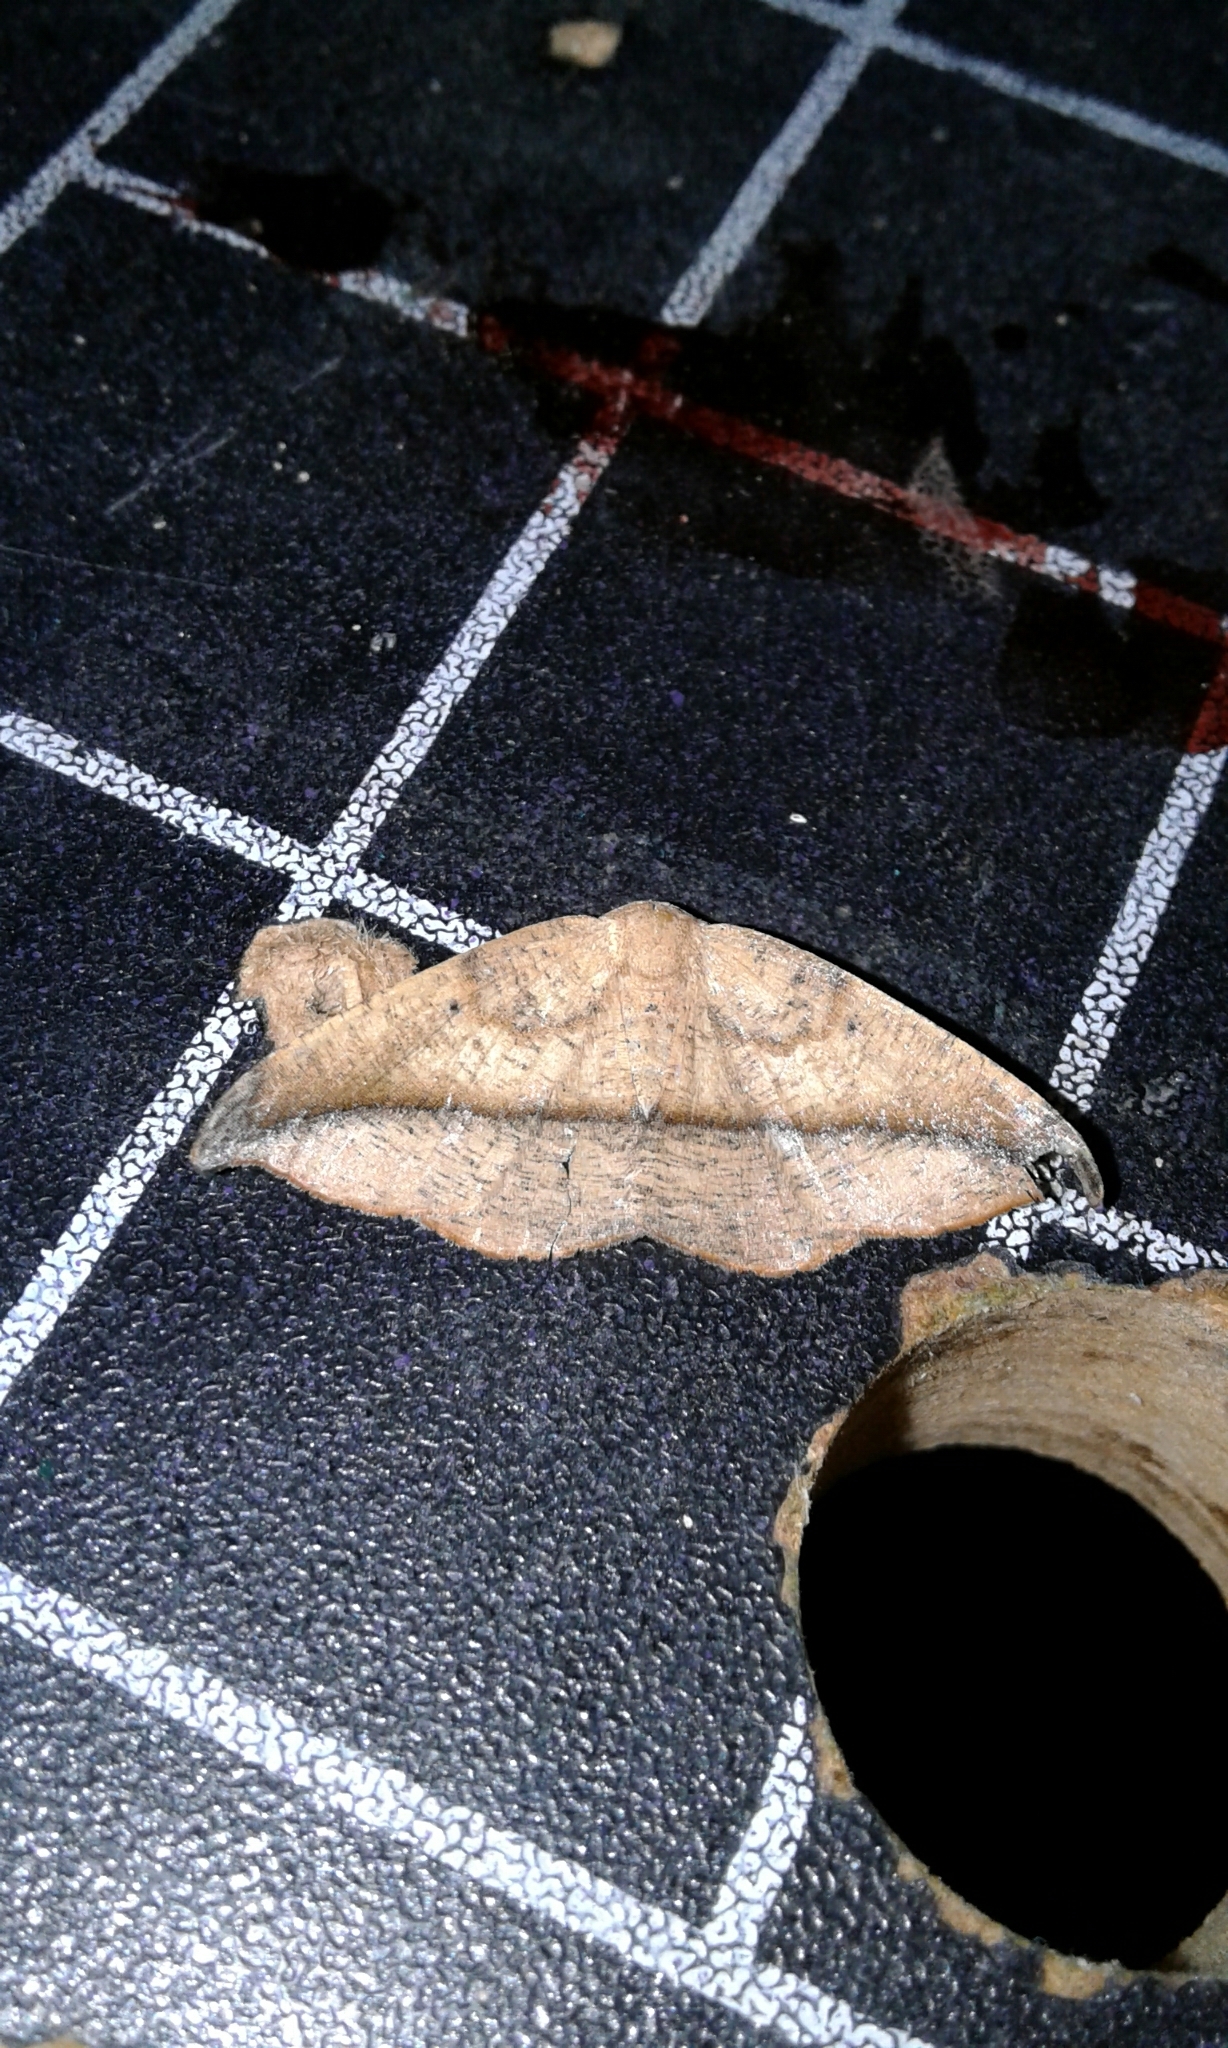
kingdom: Animalia
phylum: Arthropoda
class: Insecta
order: Lepidoptera
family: Geometridae
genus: Patalene
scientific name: Patalene olyzonaria
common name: Juniper geometer moth
